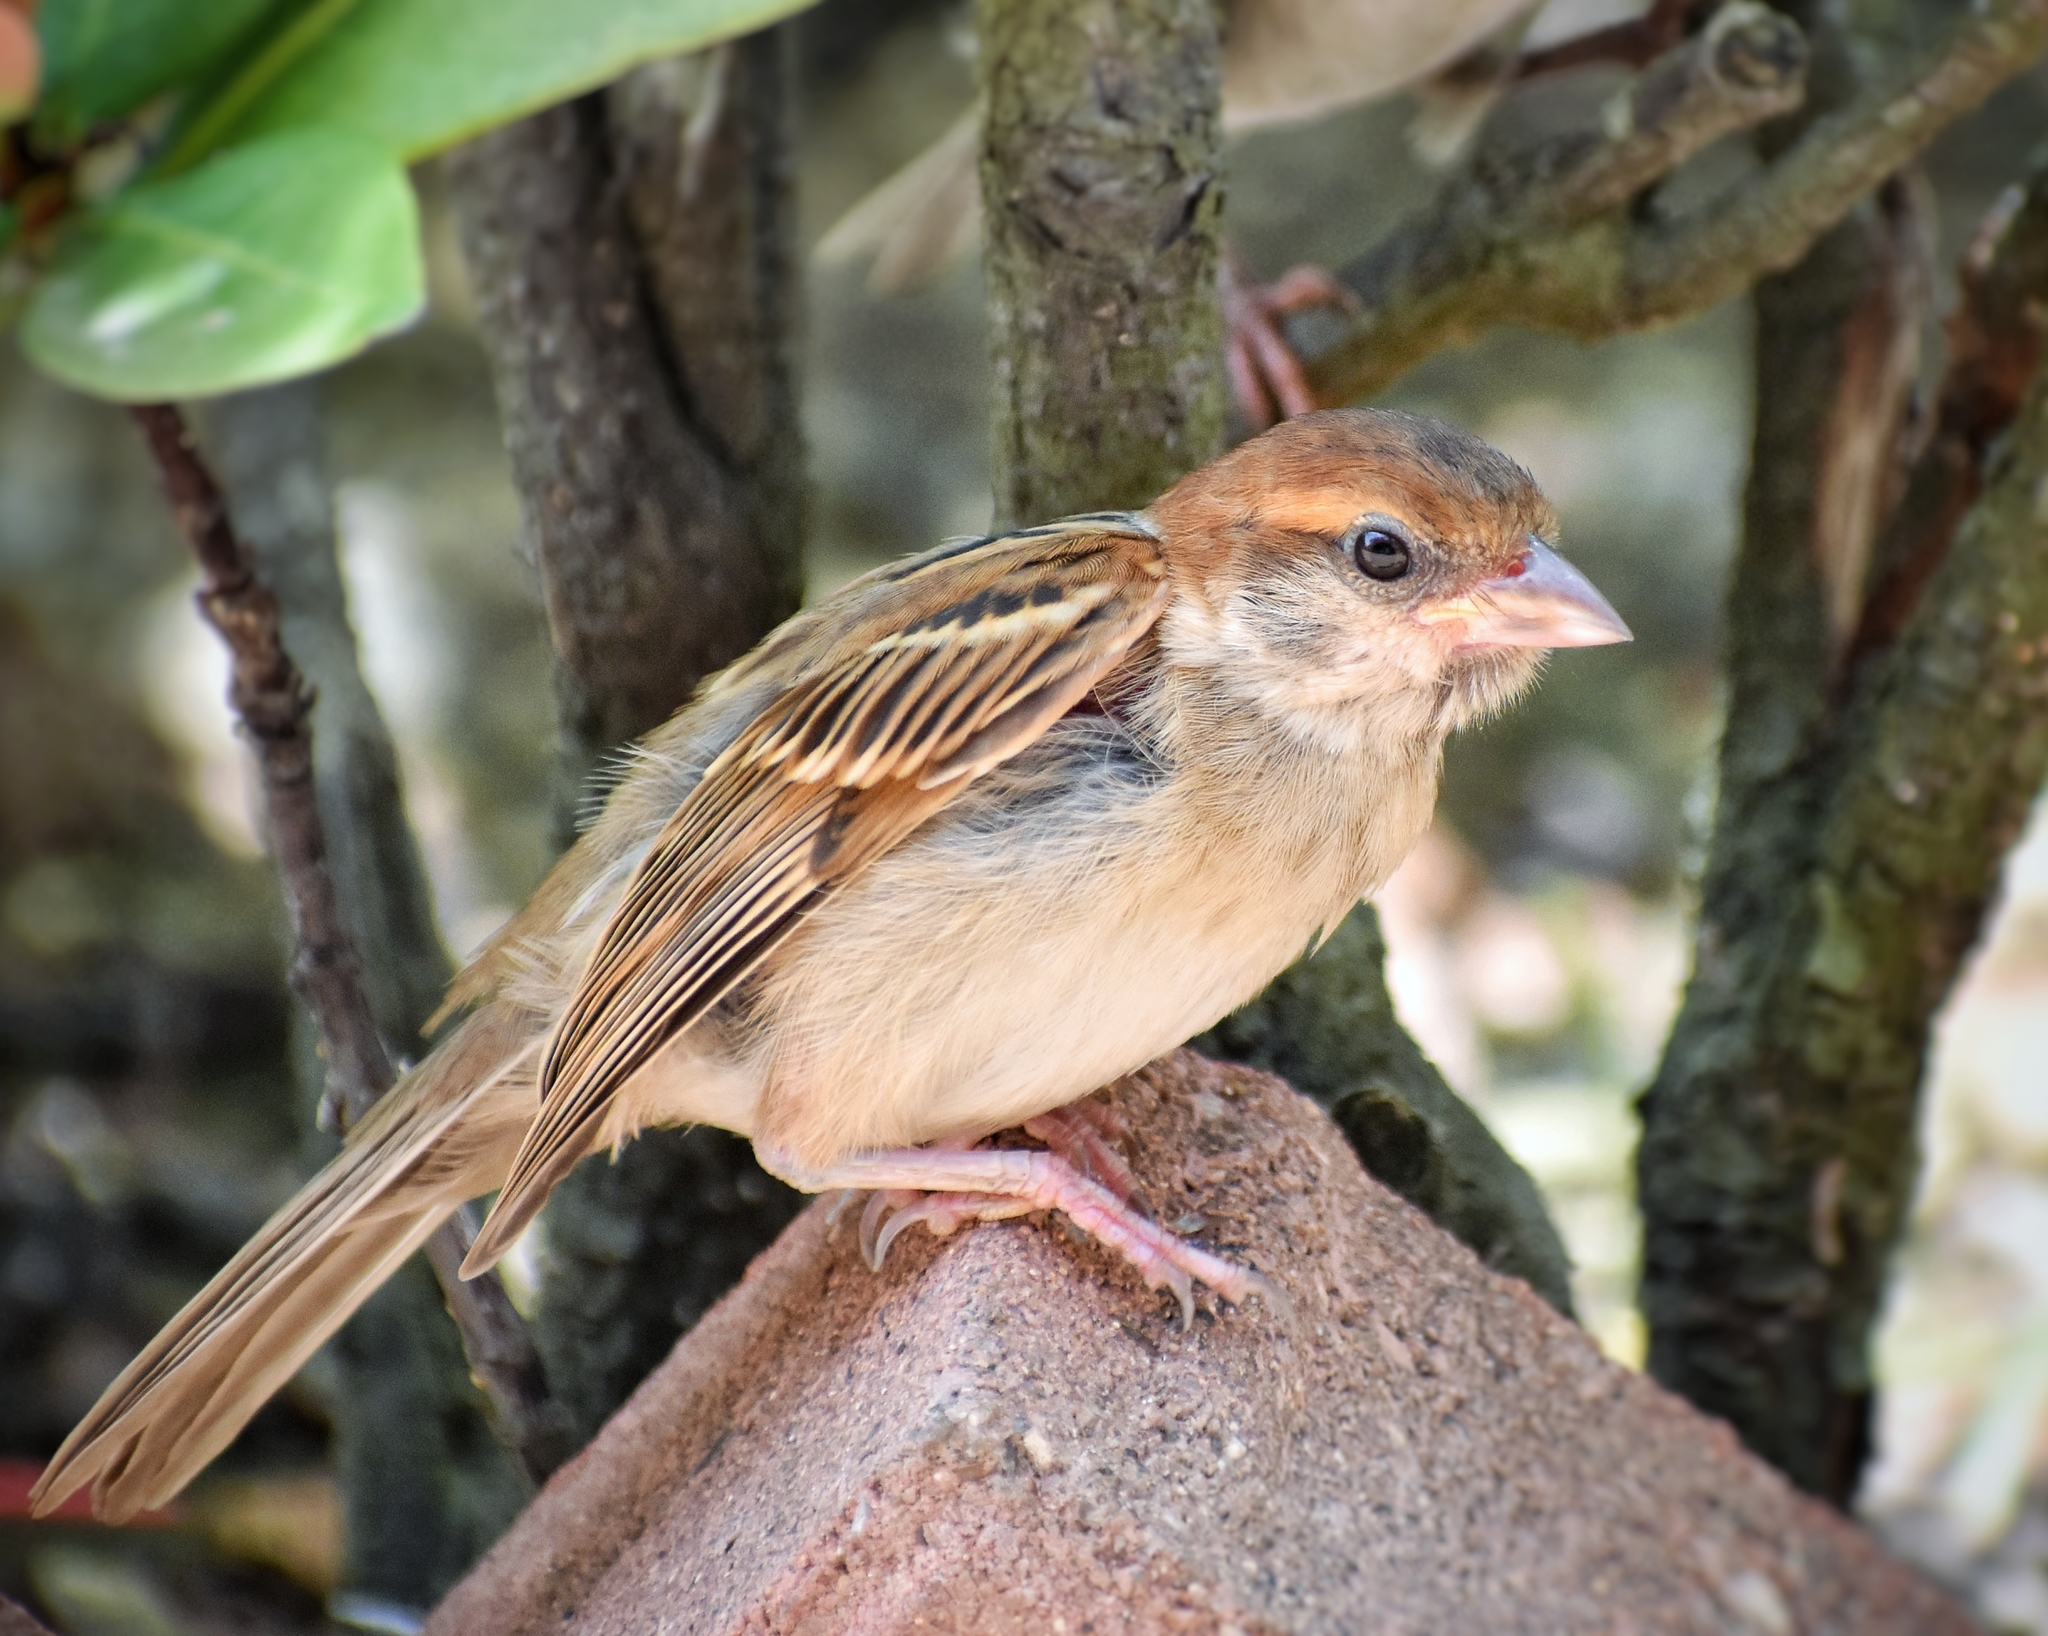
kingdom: Animalia
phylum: Chordata
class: Aves
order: Passeriformes
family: Passeridae
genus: Passer
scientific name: Passer montanus
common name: Eurasian tree sparrow
